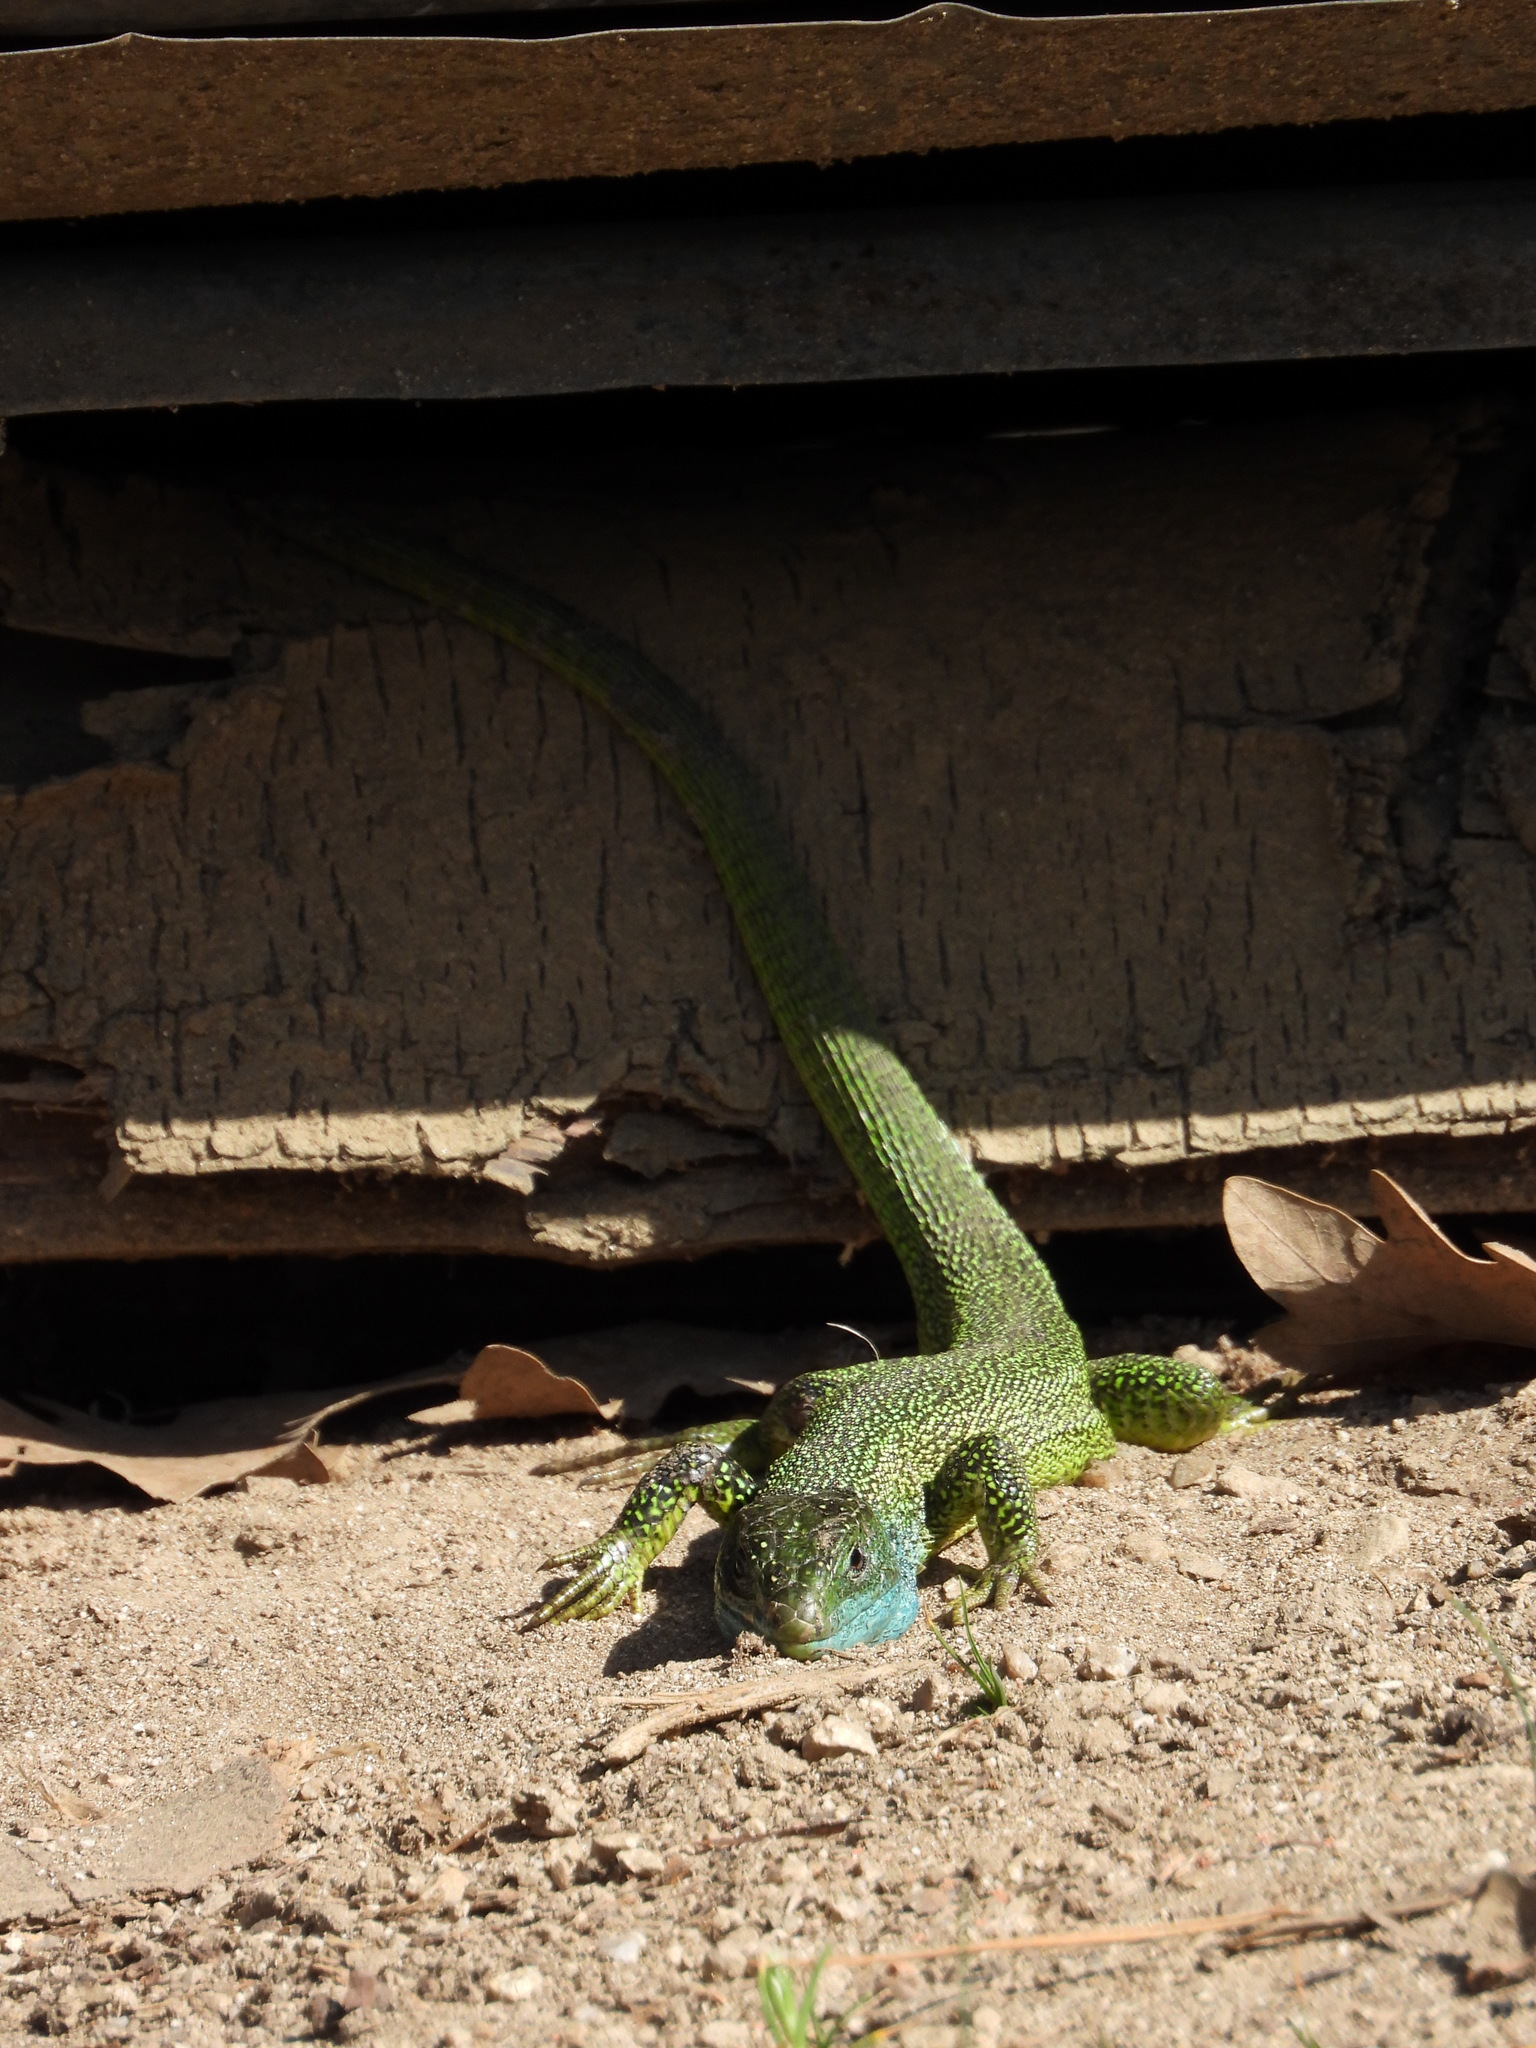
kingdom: Animalia
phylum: Chordata
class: Squamata
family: Lacertidae
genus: Lacerta
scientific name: Lacerta bilineata
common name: Western green lizard
